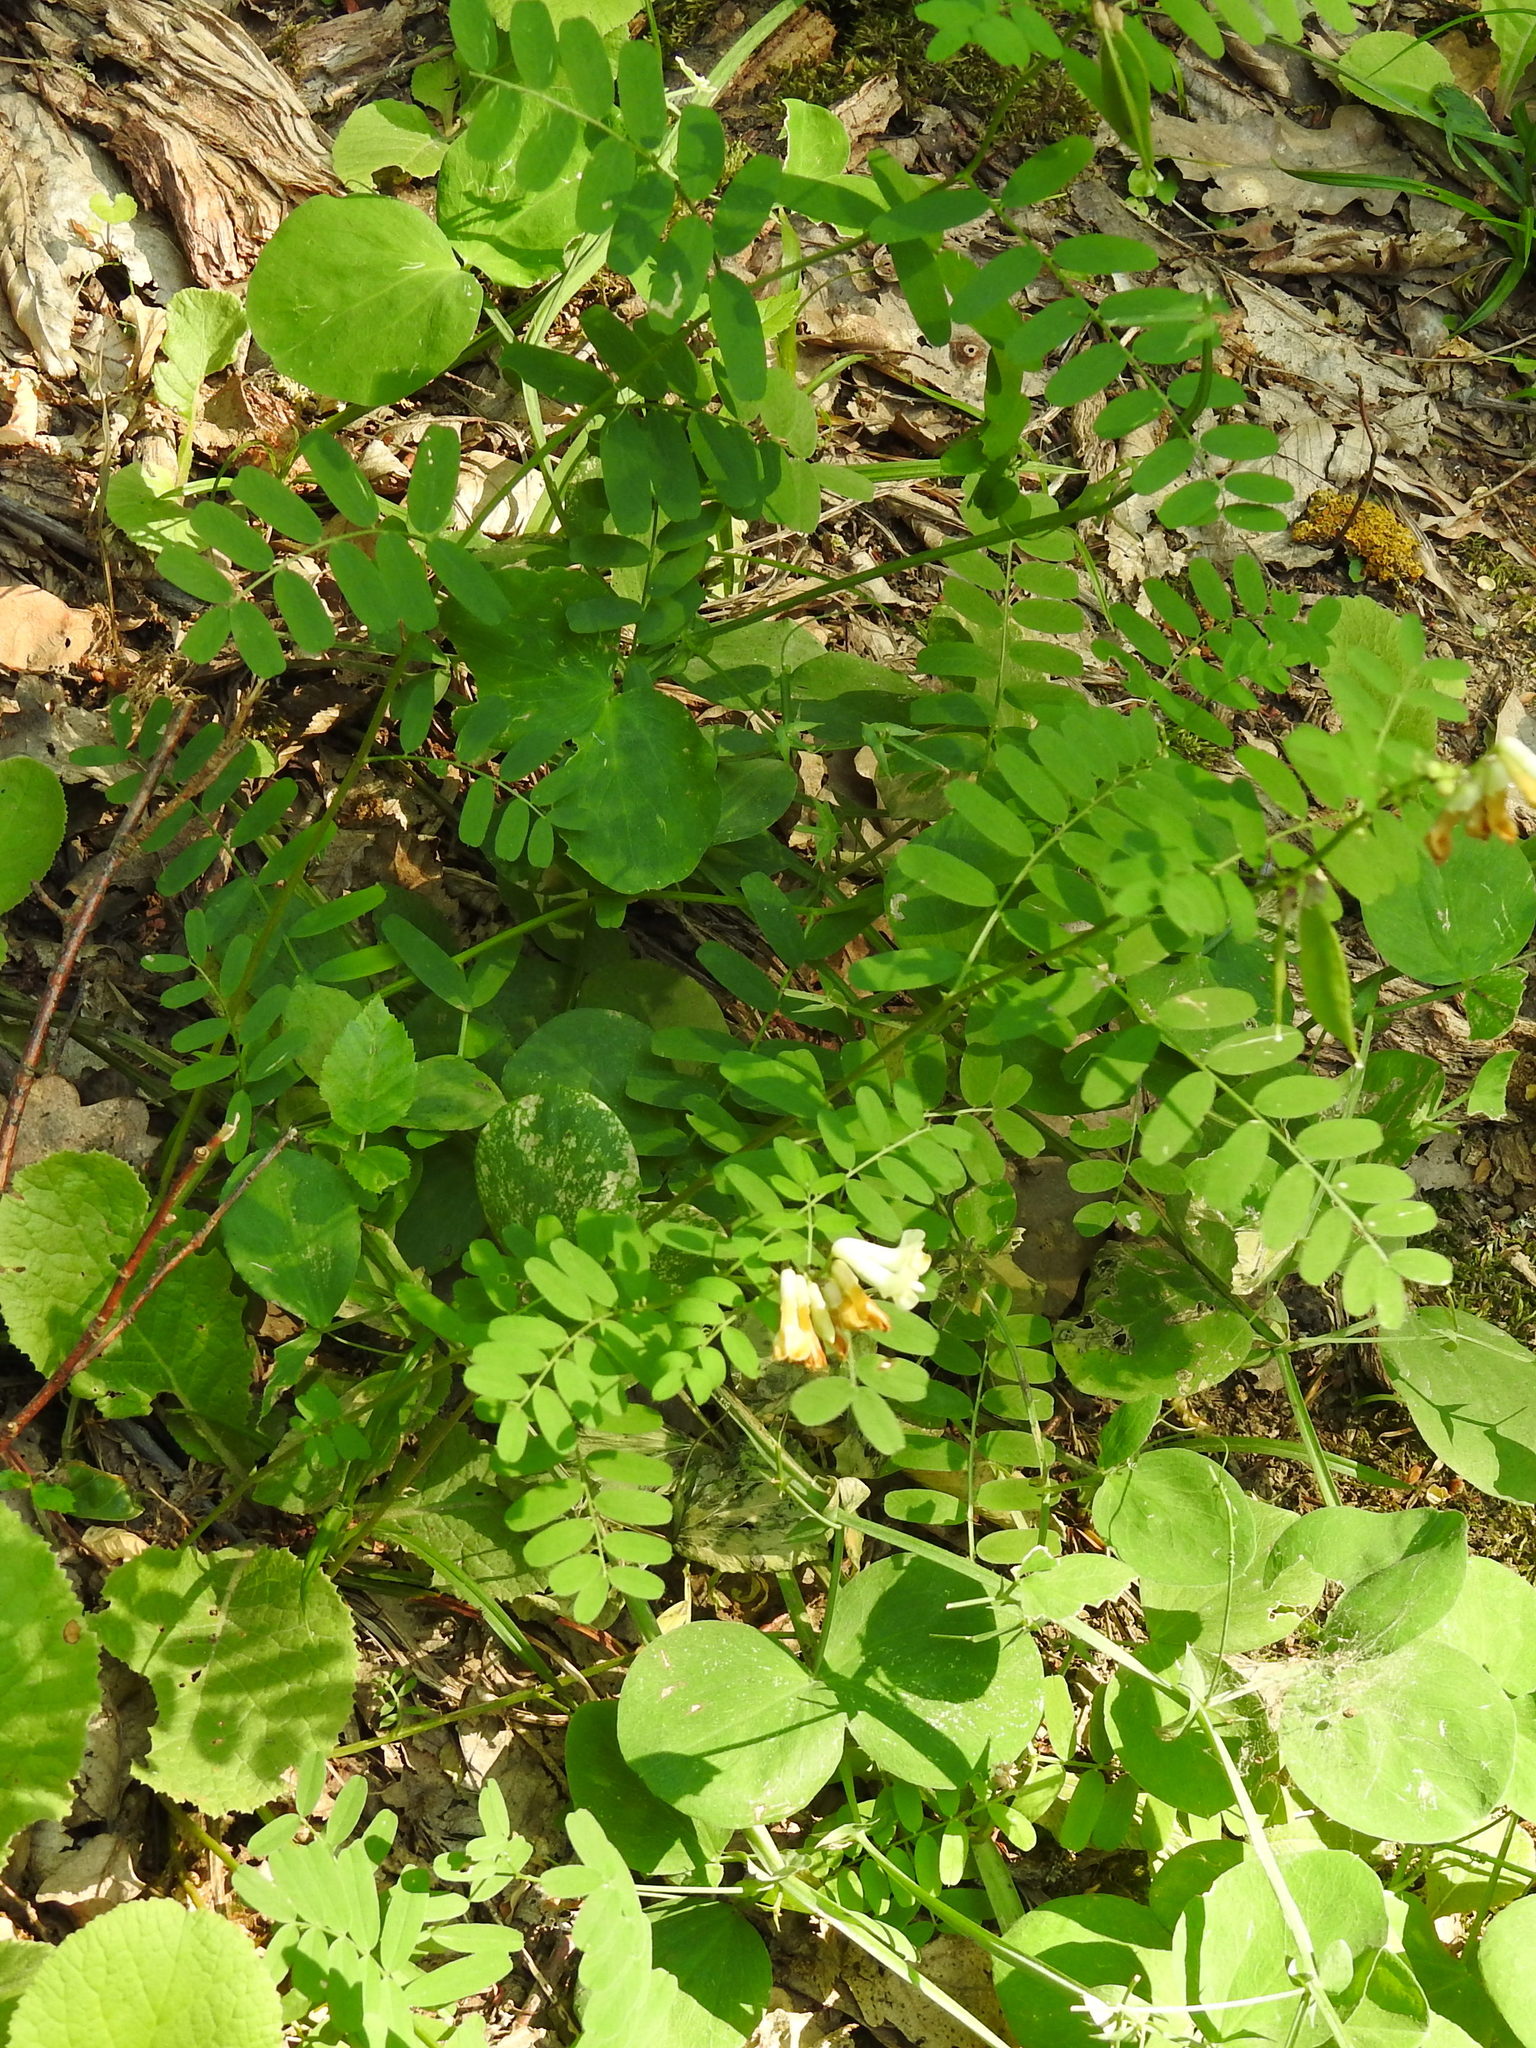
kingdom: Plantae
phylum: Tracheophyta
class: Magnoliopsida
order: Fabales
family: Fabaceae
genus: Vicia
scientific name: Vicia abbreviata
